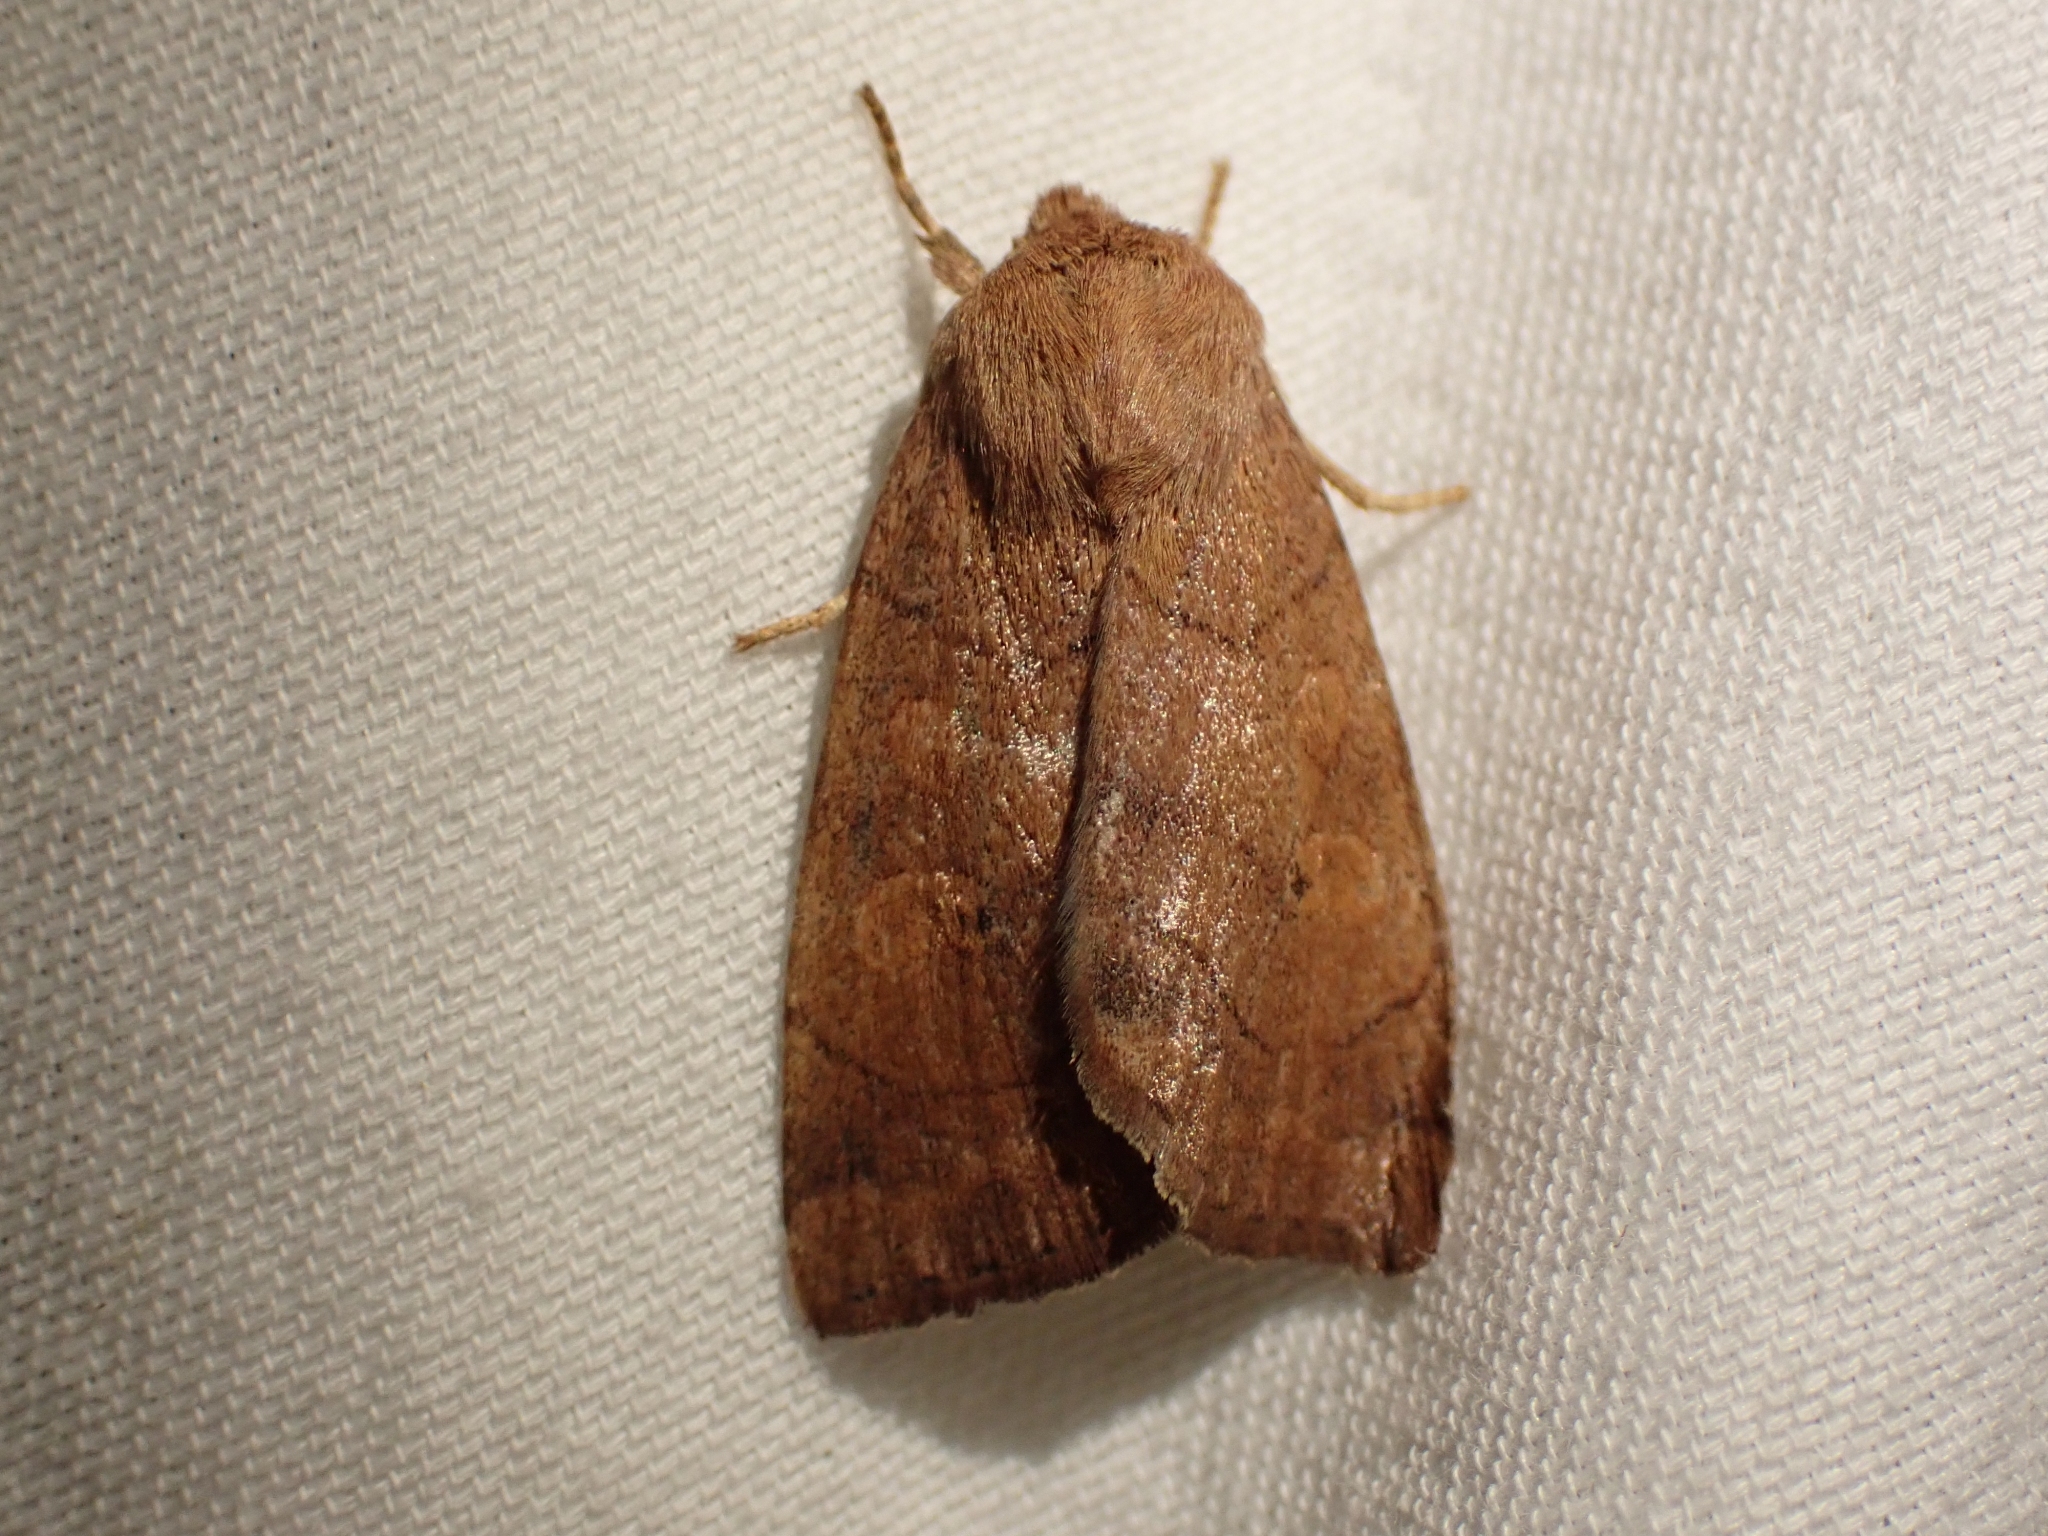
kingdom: Animalia
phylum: Arthropoda
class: Insecta
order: Lepidoptera
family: Noctuidae
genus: Enargia
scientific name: Enargia fausta
